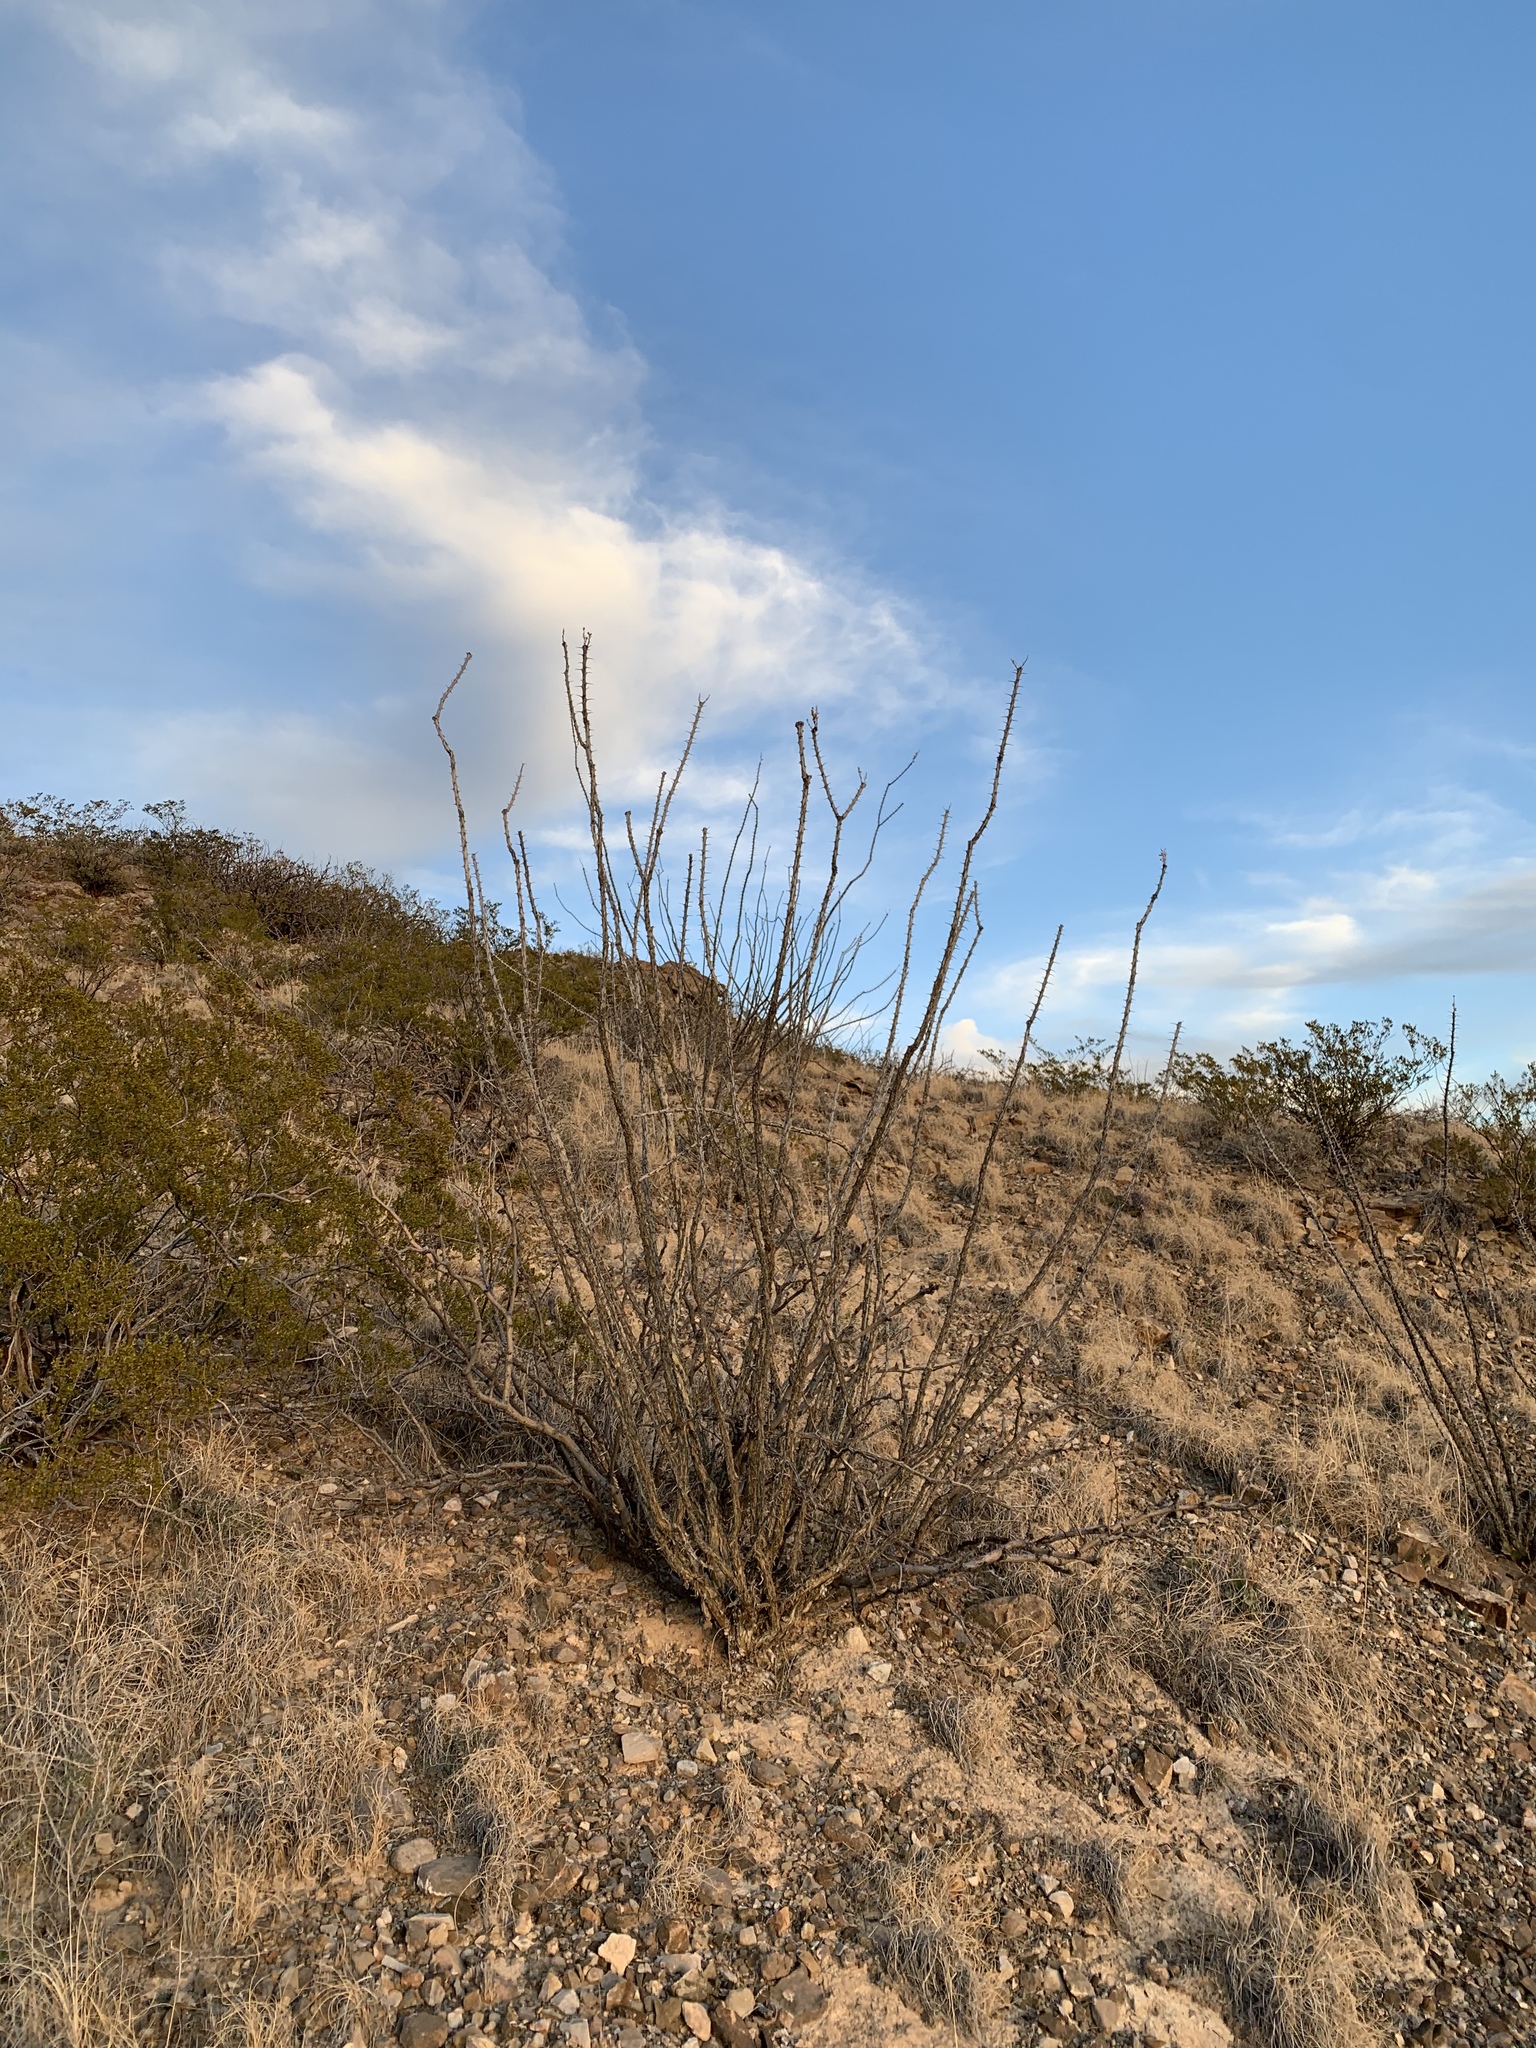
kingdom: Plantae
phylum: Tracheophyta
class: Magnoliopsida
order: Ericales
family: Fouquieriaceae
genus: Fouquieria
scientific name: Fouquieria splendens
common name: Vine-cactus
